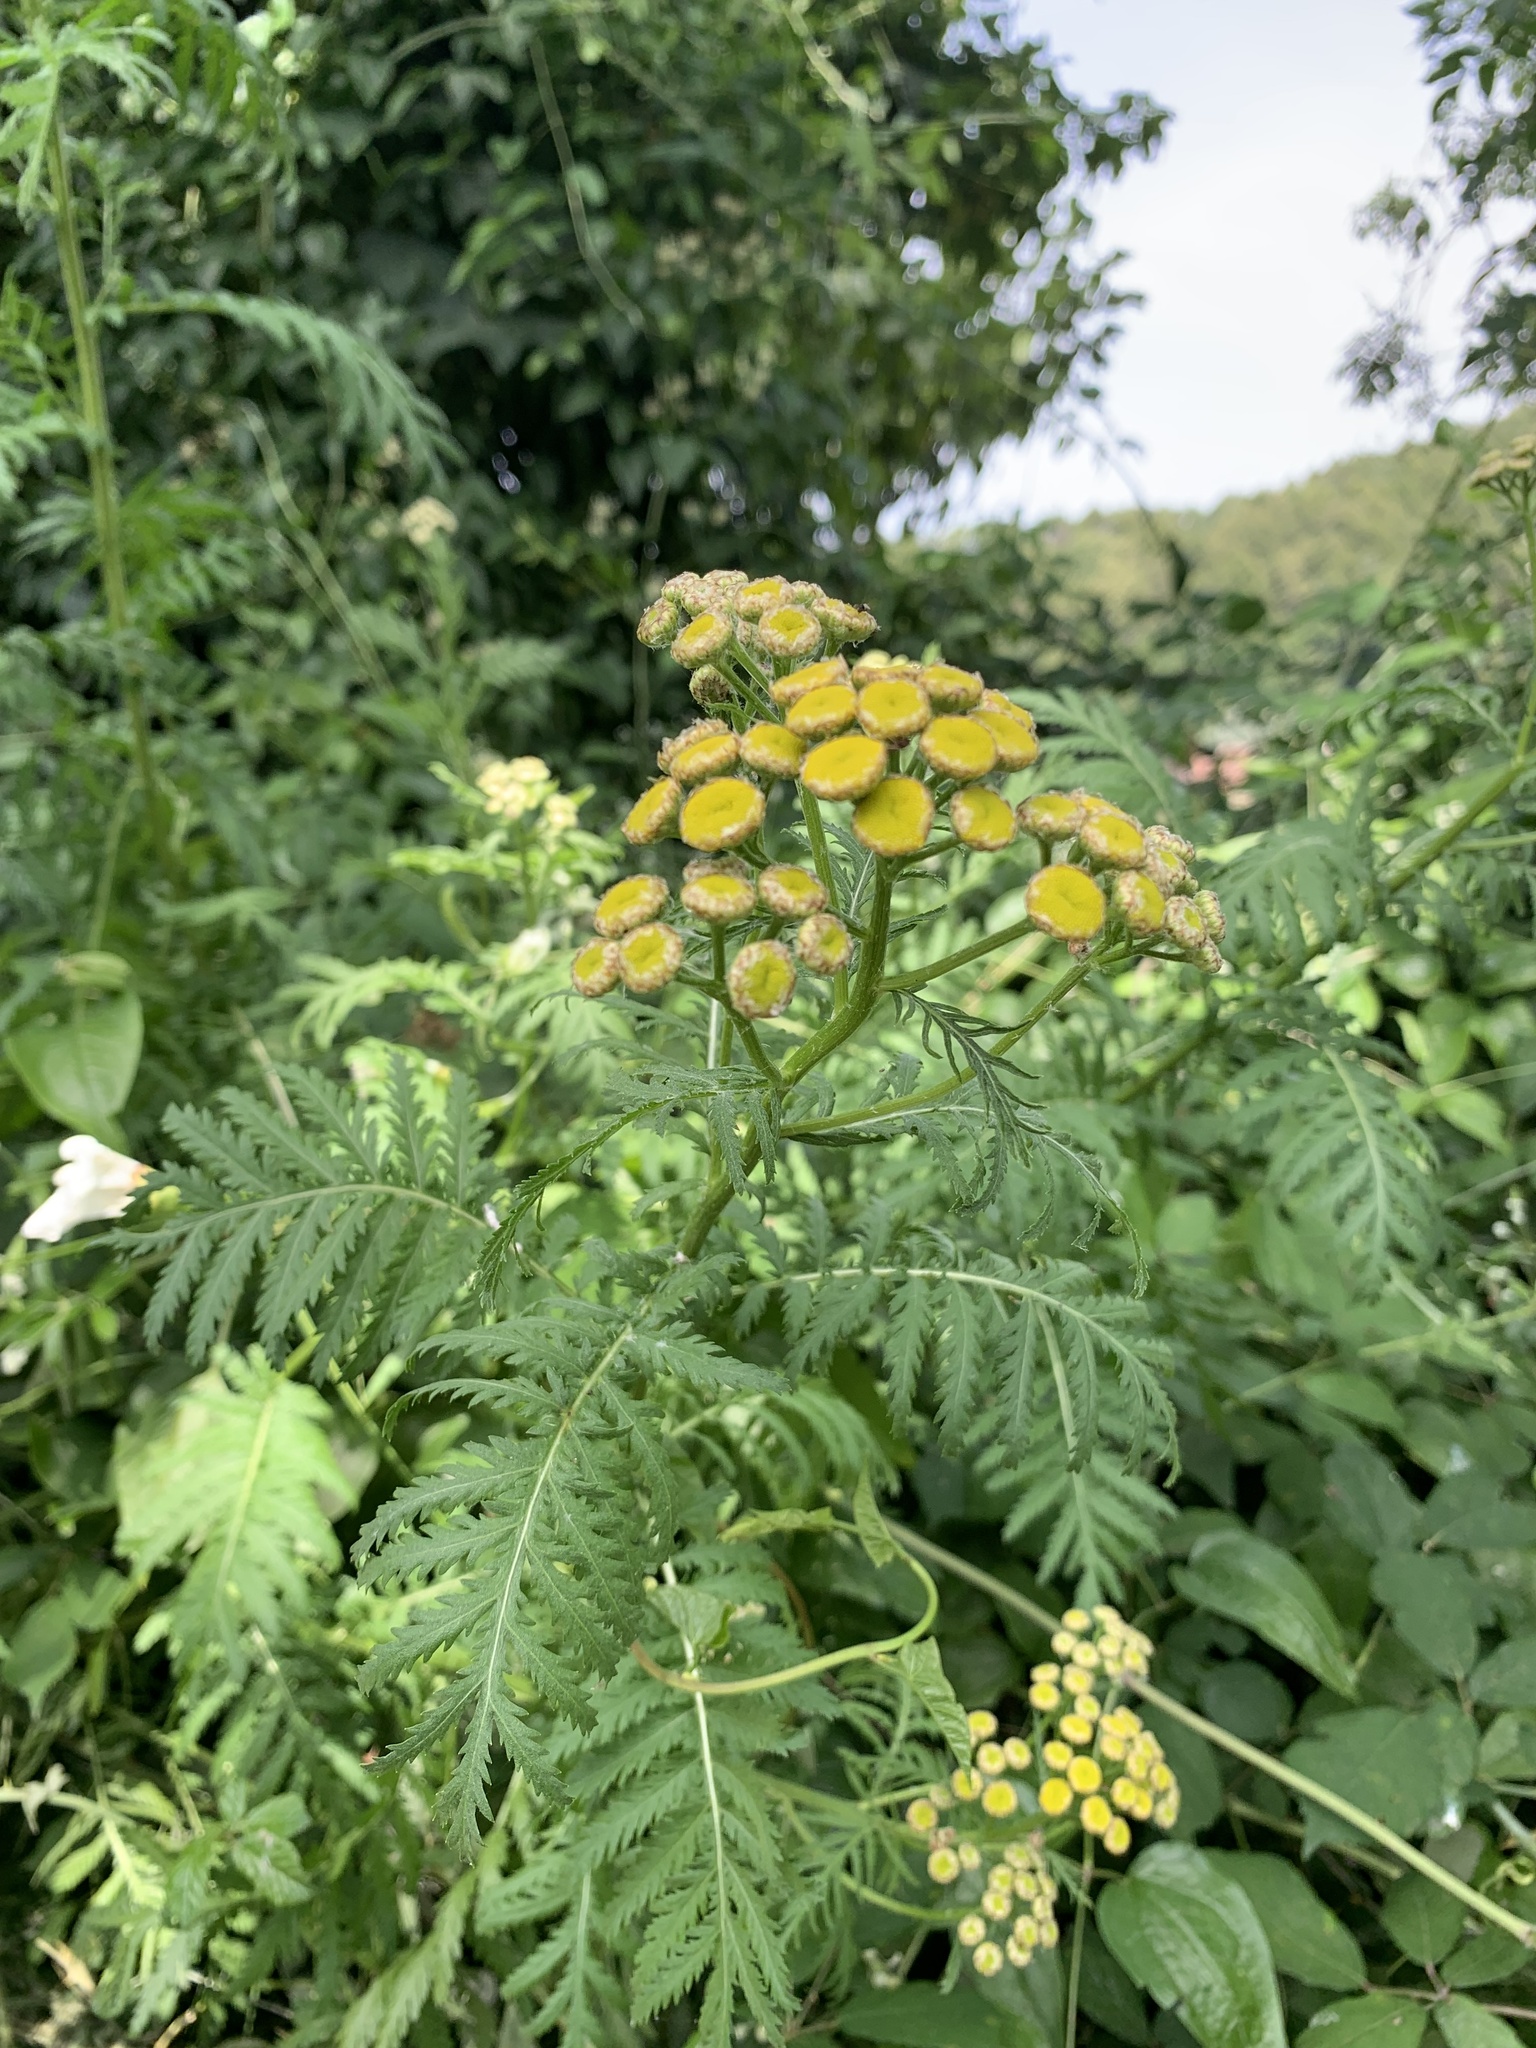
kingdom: Plantae
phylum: Tracheophyta
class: Magnoliopsida
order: Asterales
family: Asteraceae
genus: Tanacetum
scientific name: Tanacetum vulgare
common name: Common tansy
